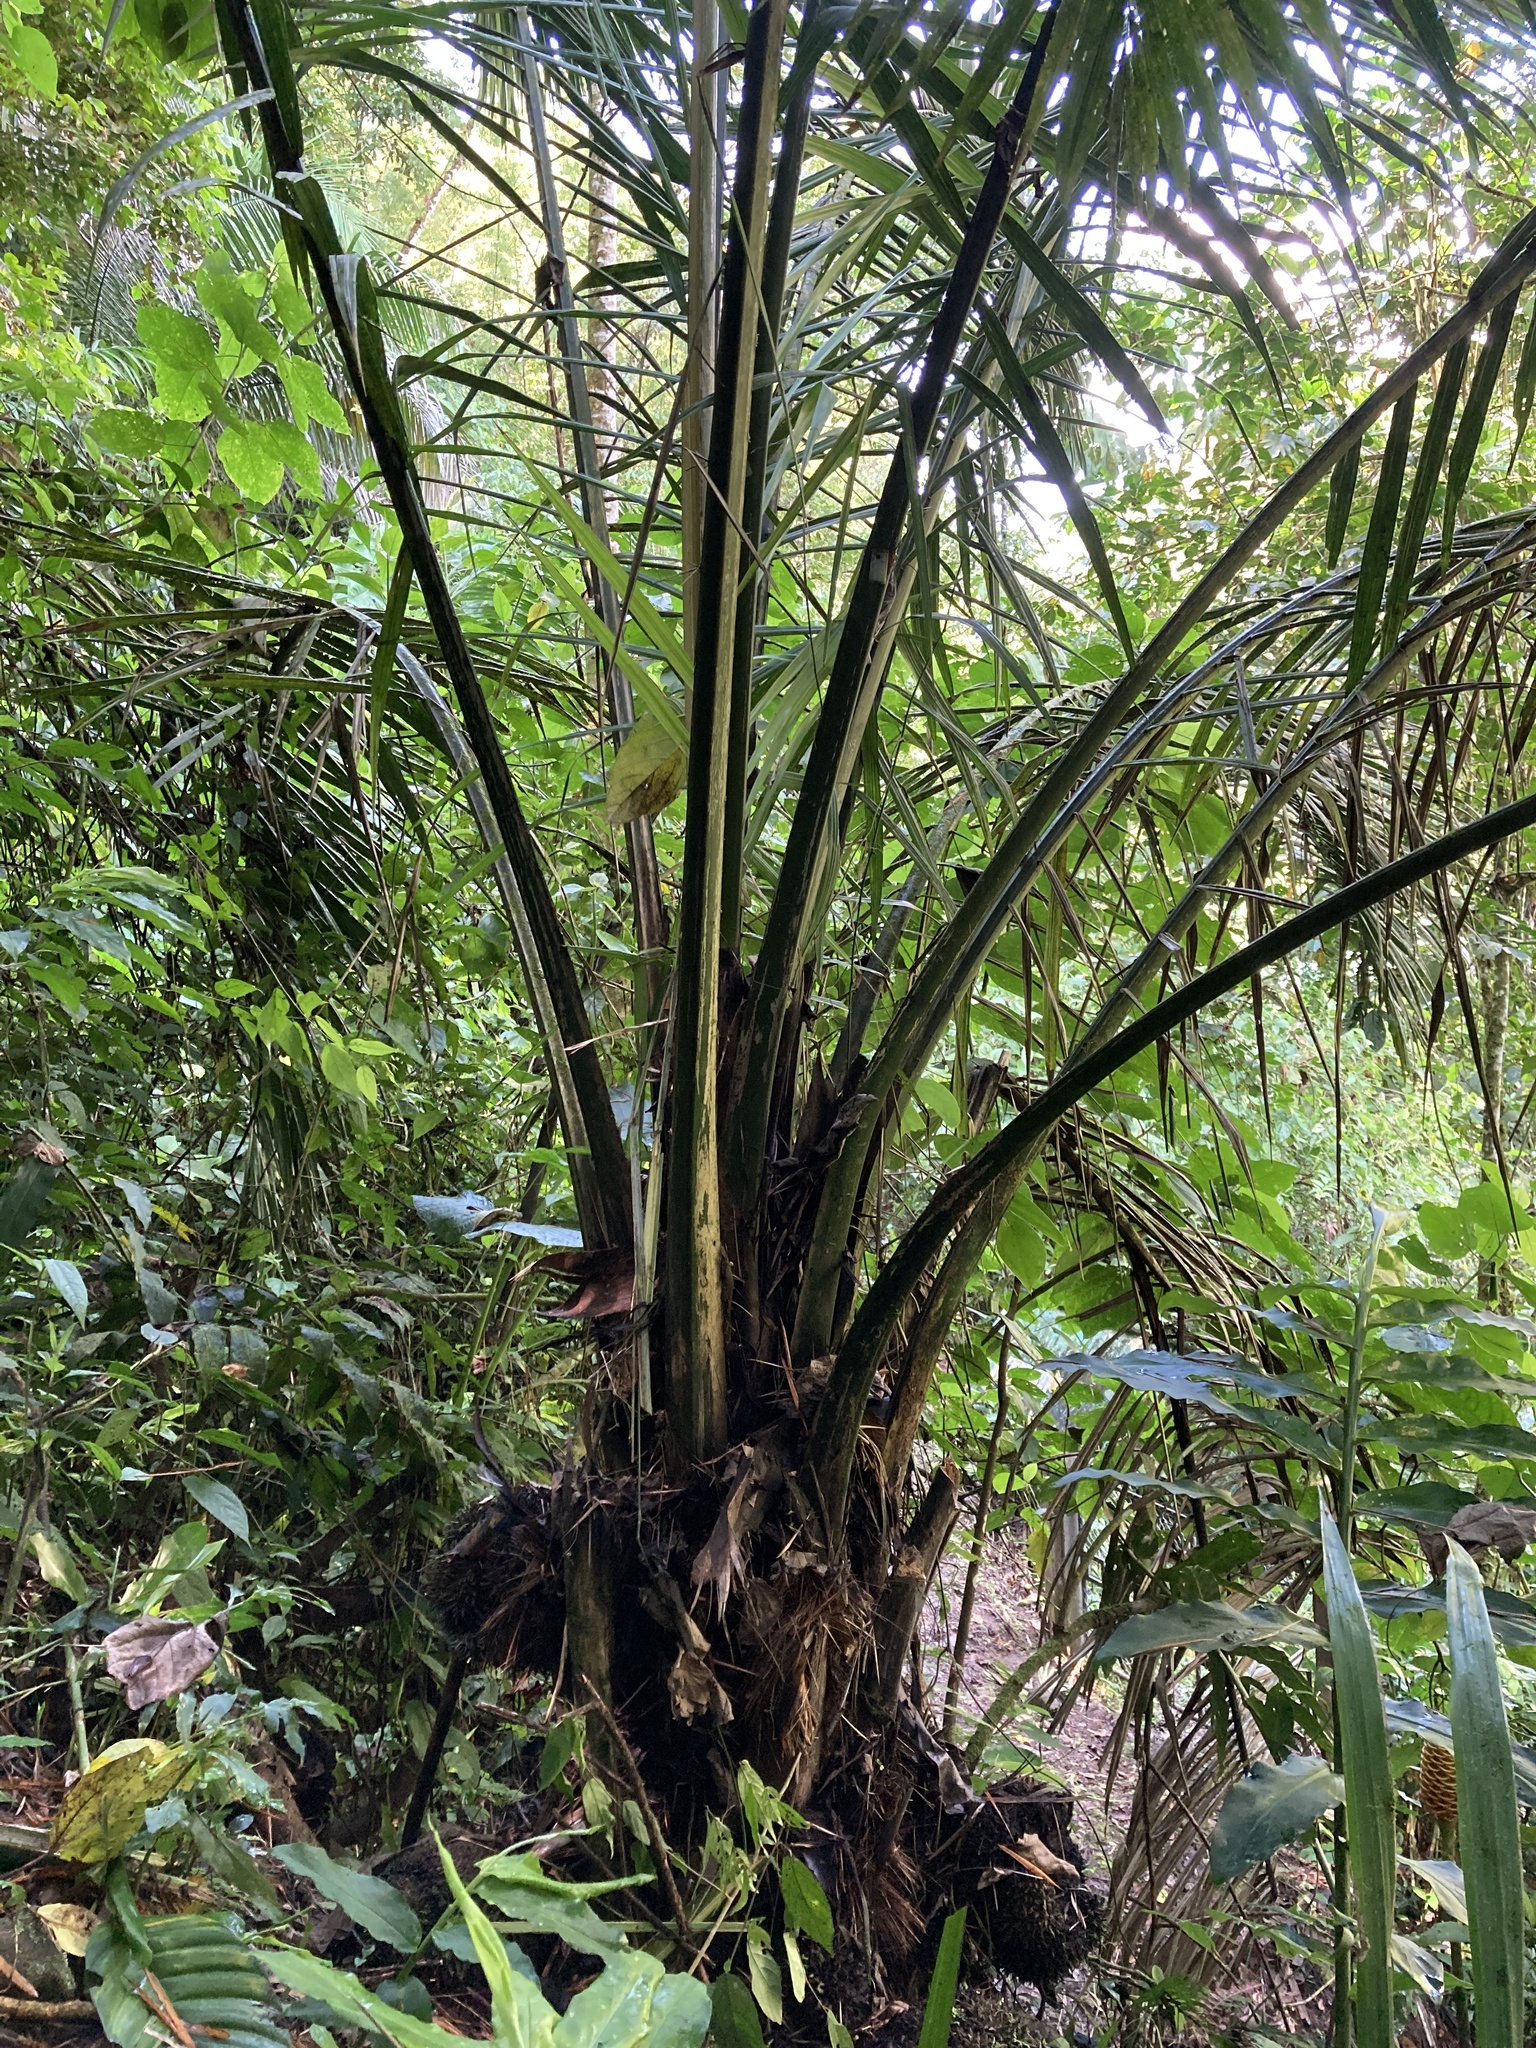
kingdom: Plantae
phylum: Tracheophyta
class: Liliopsida
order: Arecales
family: Arecaceae
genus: Phytelephas
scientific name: Phytelephas aequatorialis
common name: Ivory palm
